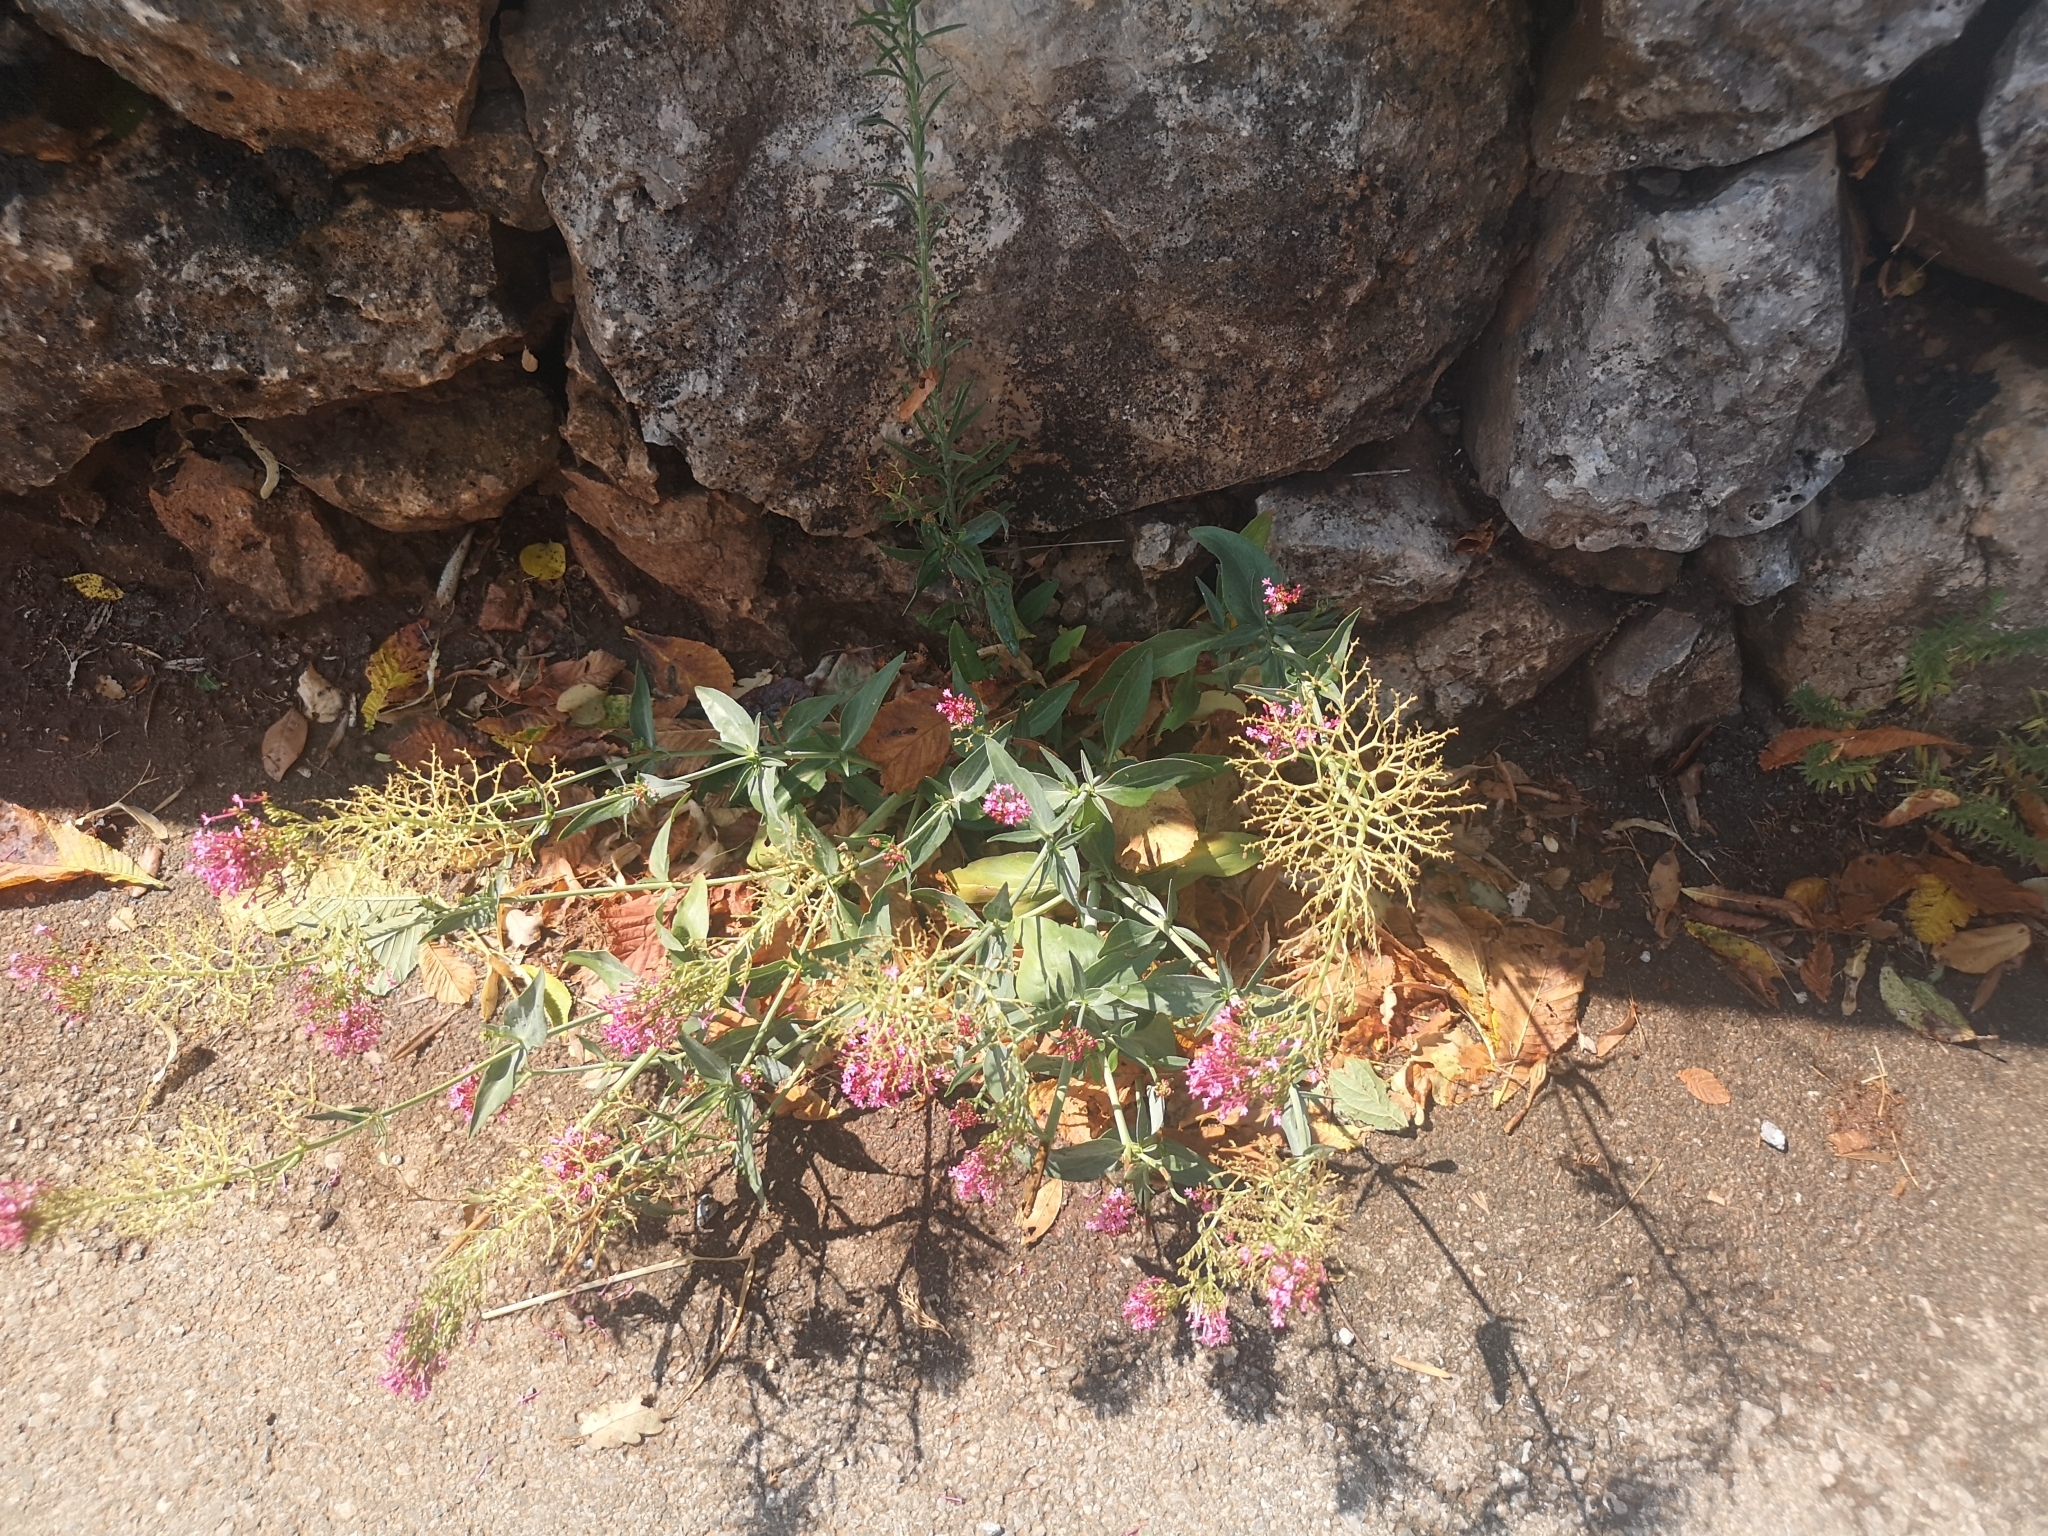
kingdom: Plantae
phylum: Tracheophyta
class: Magnoliopsida
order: Dipsacales
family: Caprifoliaceae
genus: Centranthus
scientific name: Centranthus ruber
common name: Red valerian
